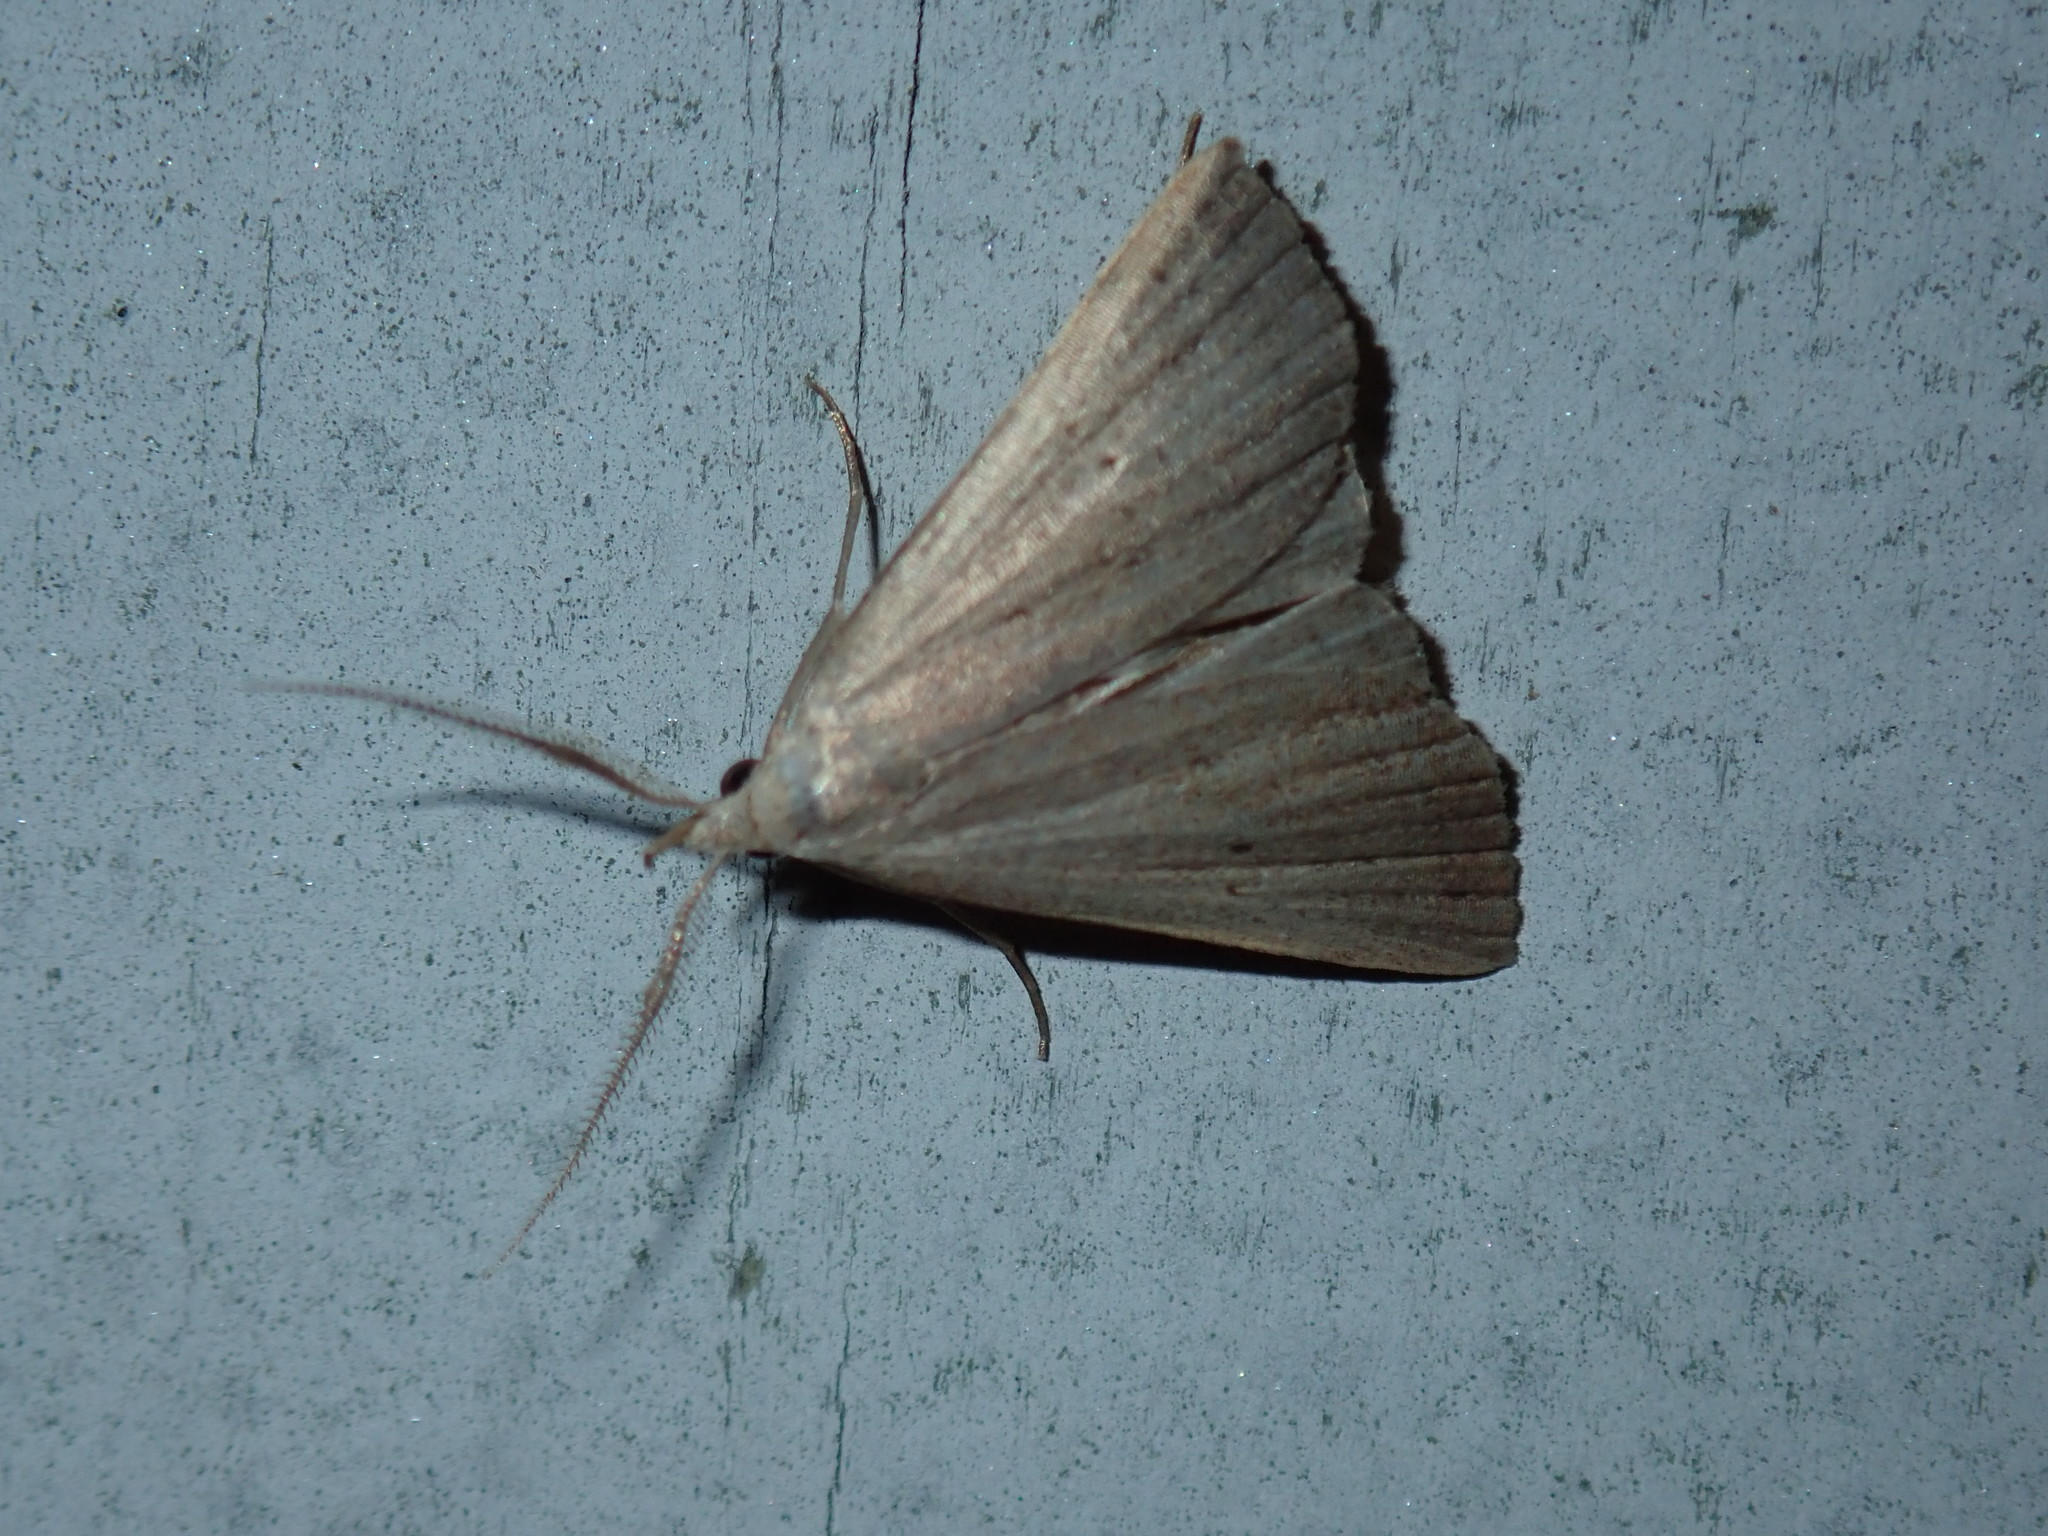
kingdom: Animalia
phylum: Arthropoda
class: Insecta
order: Lepidoptera
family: Erebidae
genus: Macrochilo
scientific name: Macrochilo louisiana
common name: Louisiana macrochilo
